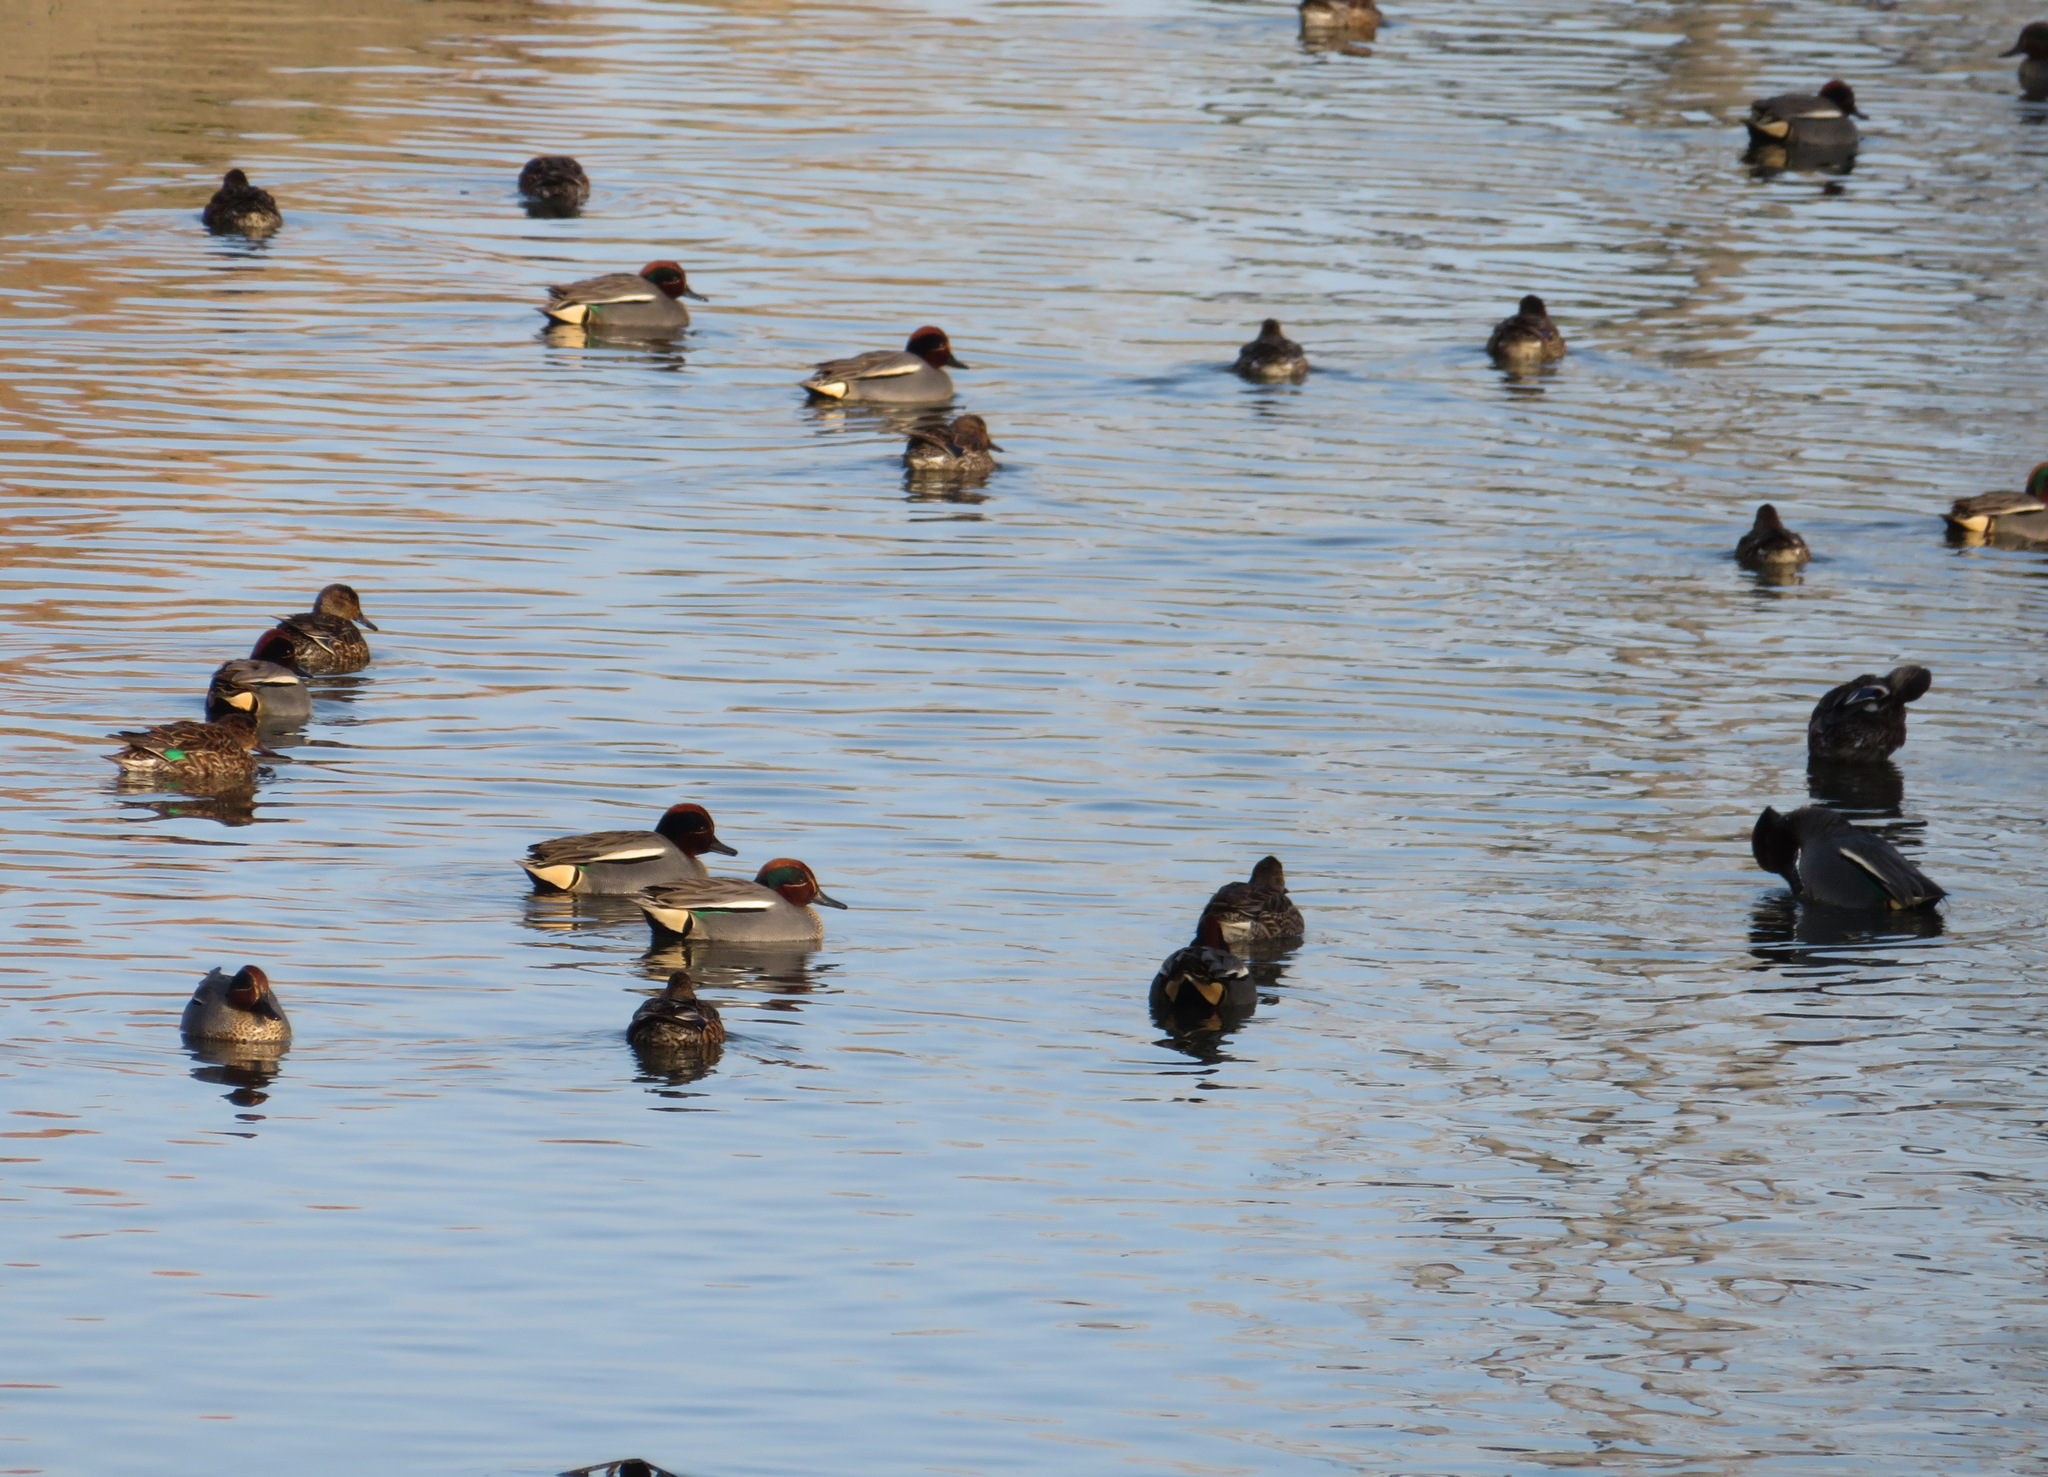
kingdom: Animalia
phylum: Chordata
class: Aves
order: Anseriformes
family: Anatidae
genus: Anas
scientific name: Anas crecca
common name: Eurasian teal
